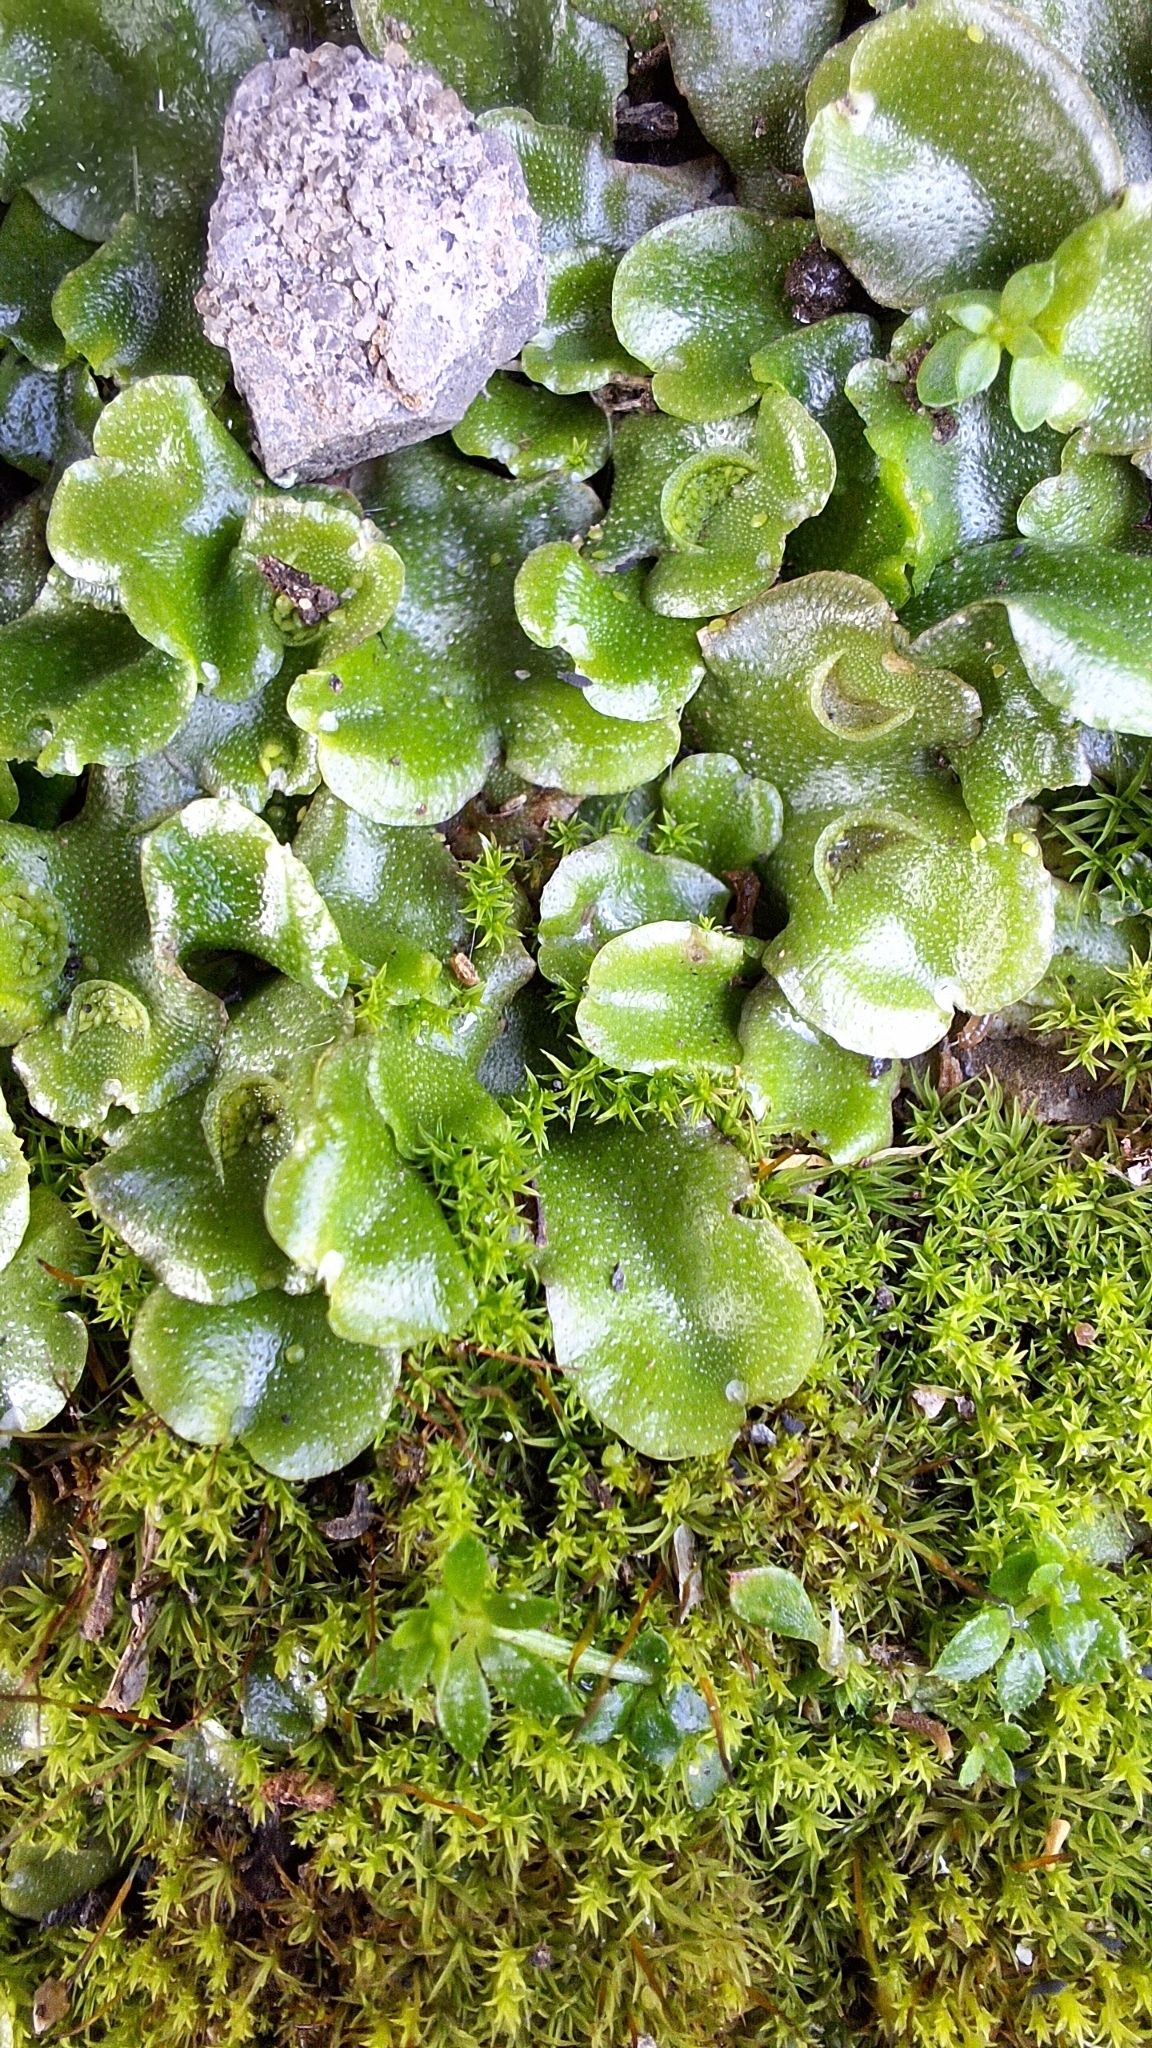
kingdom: Plantae
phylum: Marchantiophyta
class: Marchantiopsida
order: Lunulariales
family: Lunulariaceae
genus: Lunularia
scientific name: Lunularia cruciata
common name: Crescent-cup liverwort
